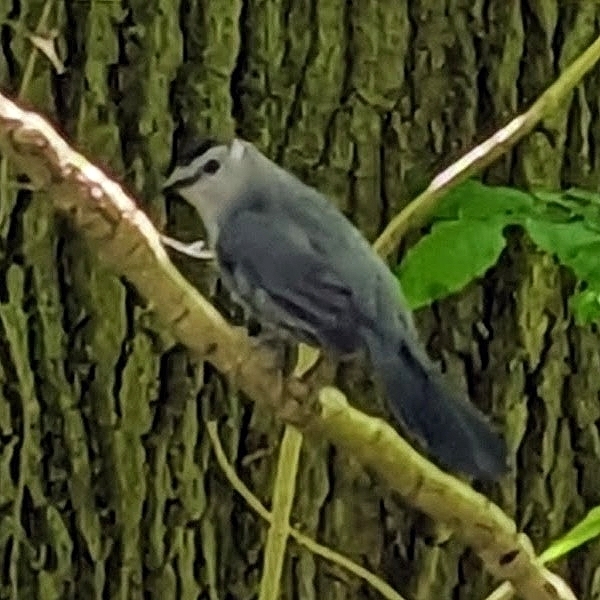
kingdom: Animalia
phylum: Chordata
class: Aves
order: Passeriformes
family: Mimidae
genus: Dumetella
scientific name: Dumetella carolinensis
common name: Gray catbird
